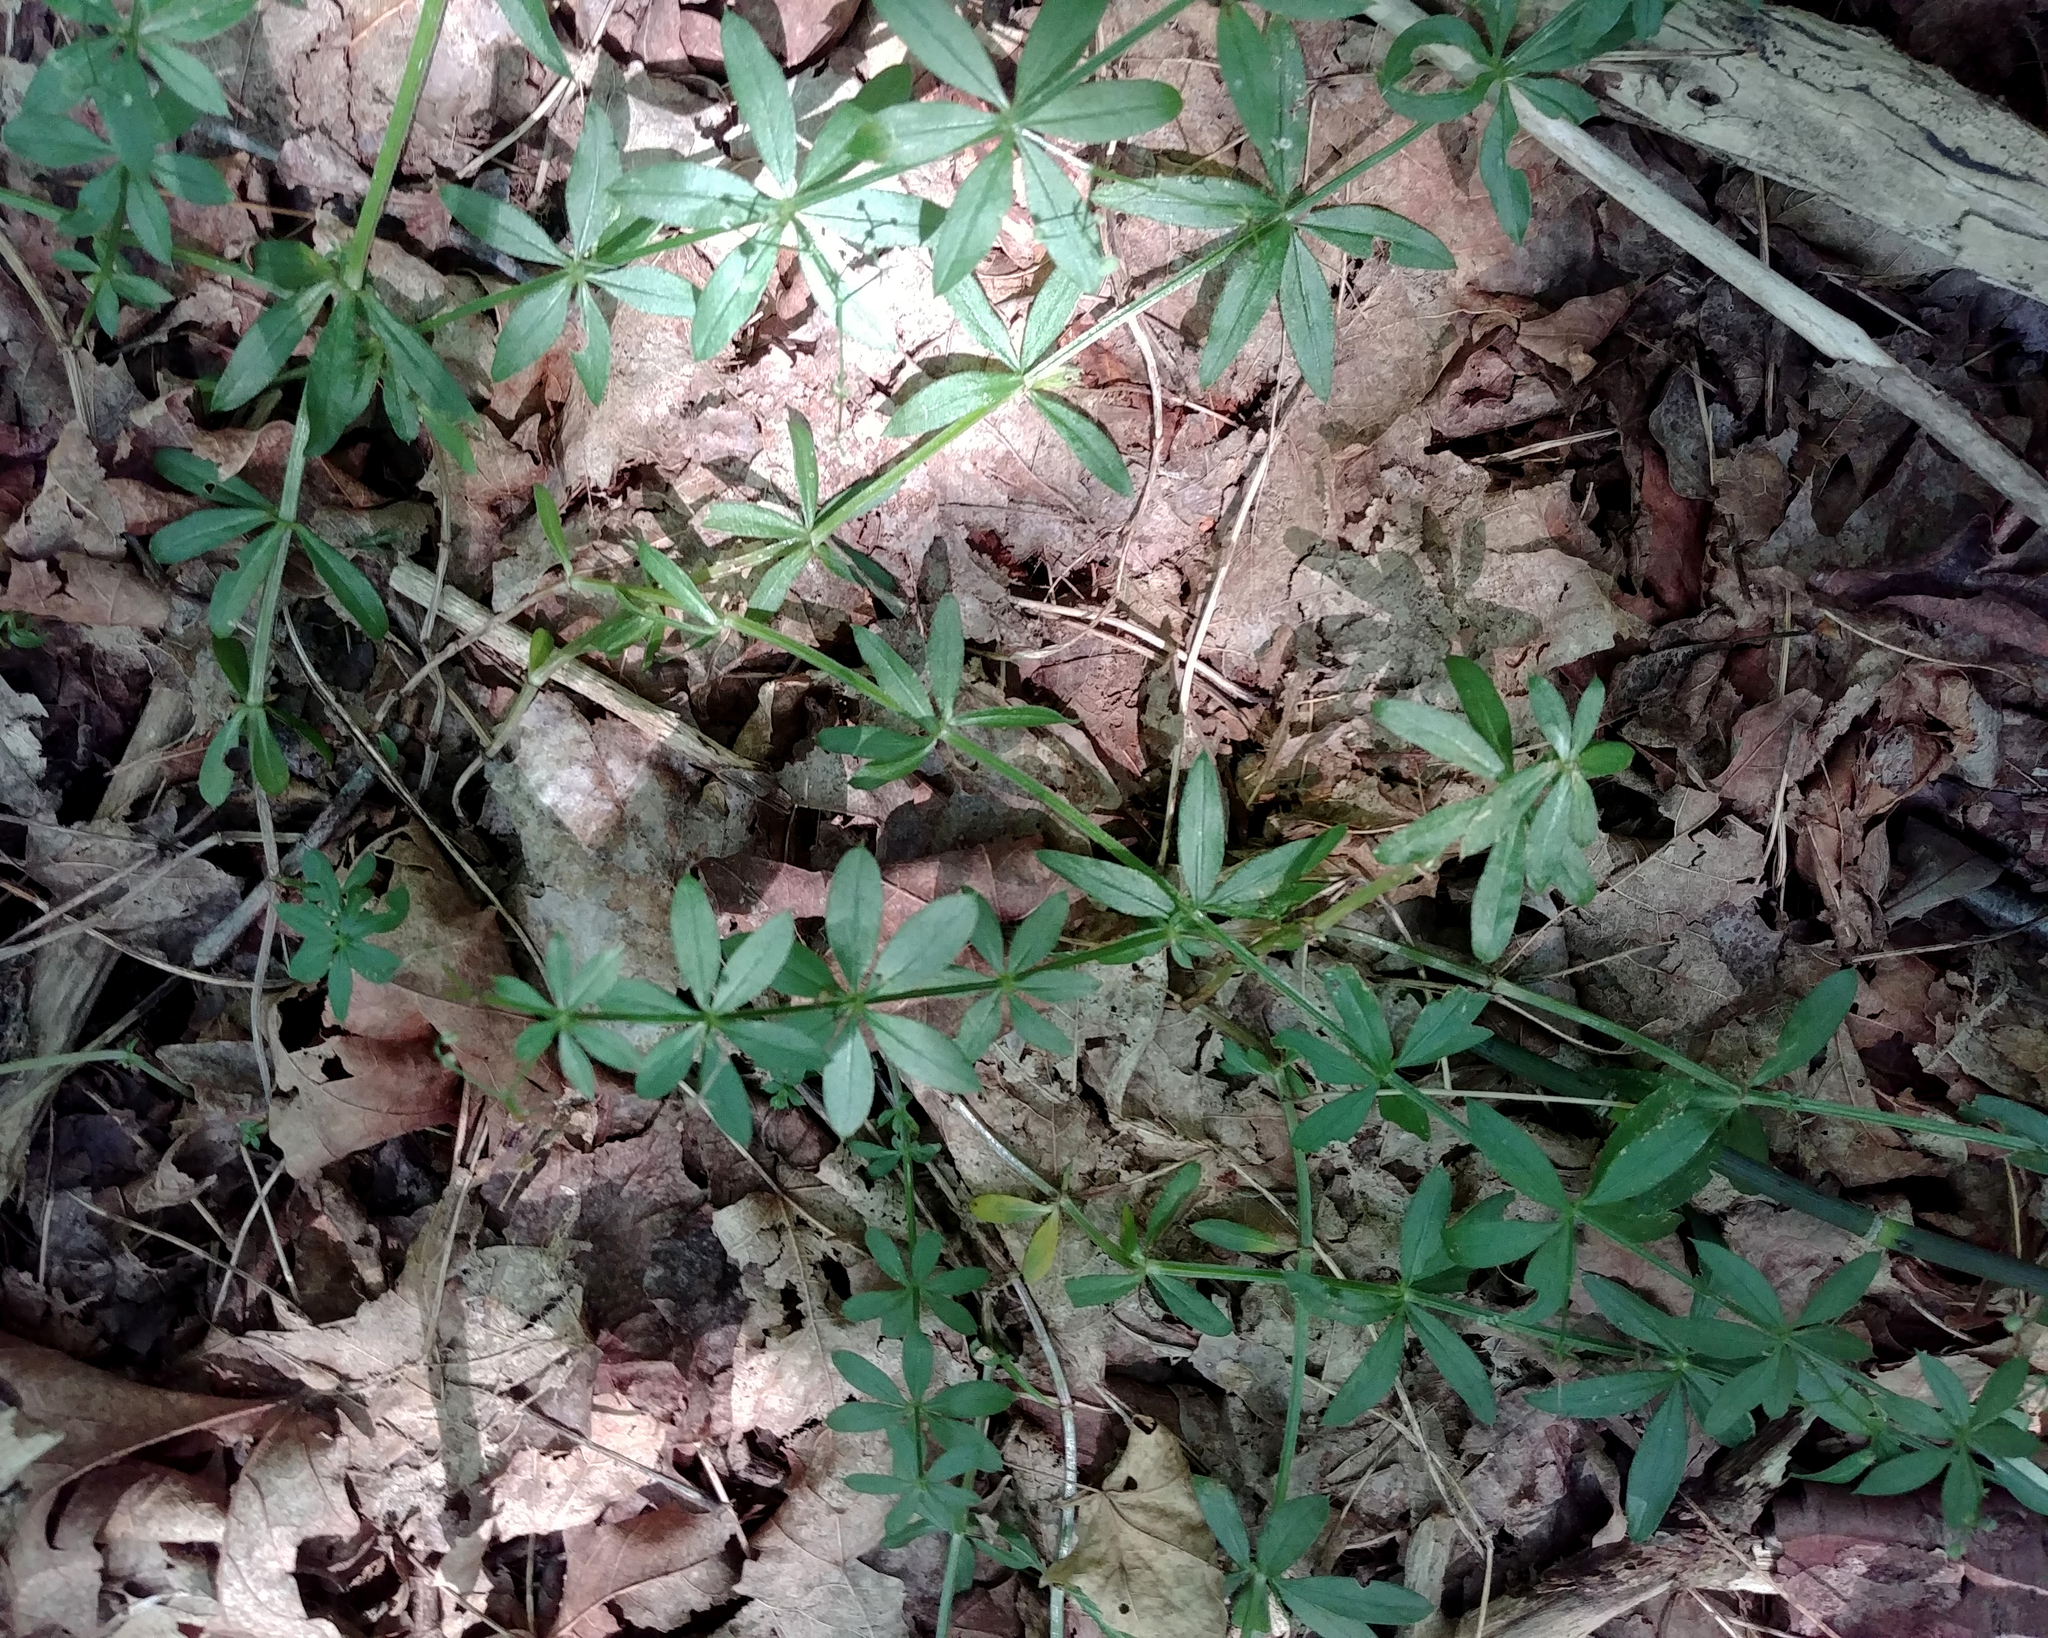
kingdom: Plantae
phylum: Tracheophyta
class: Magnoliopsida
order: Gentianales
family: Rubiaceae
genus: Galium
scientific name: Galium triflorum
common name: Fragrant bedstraw
